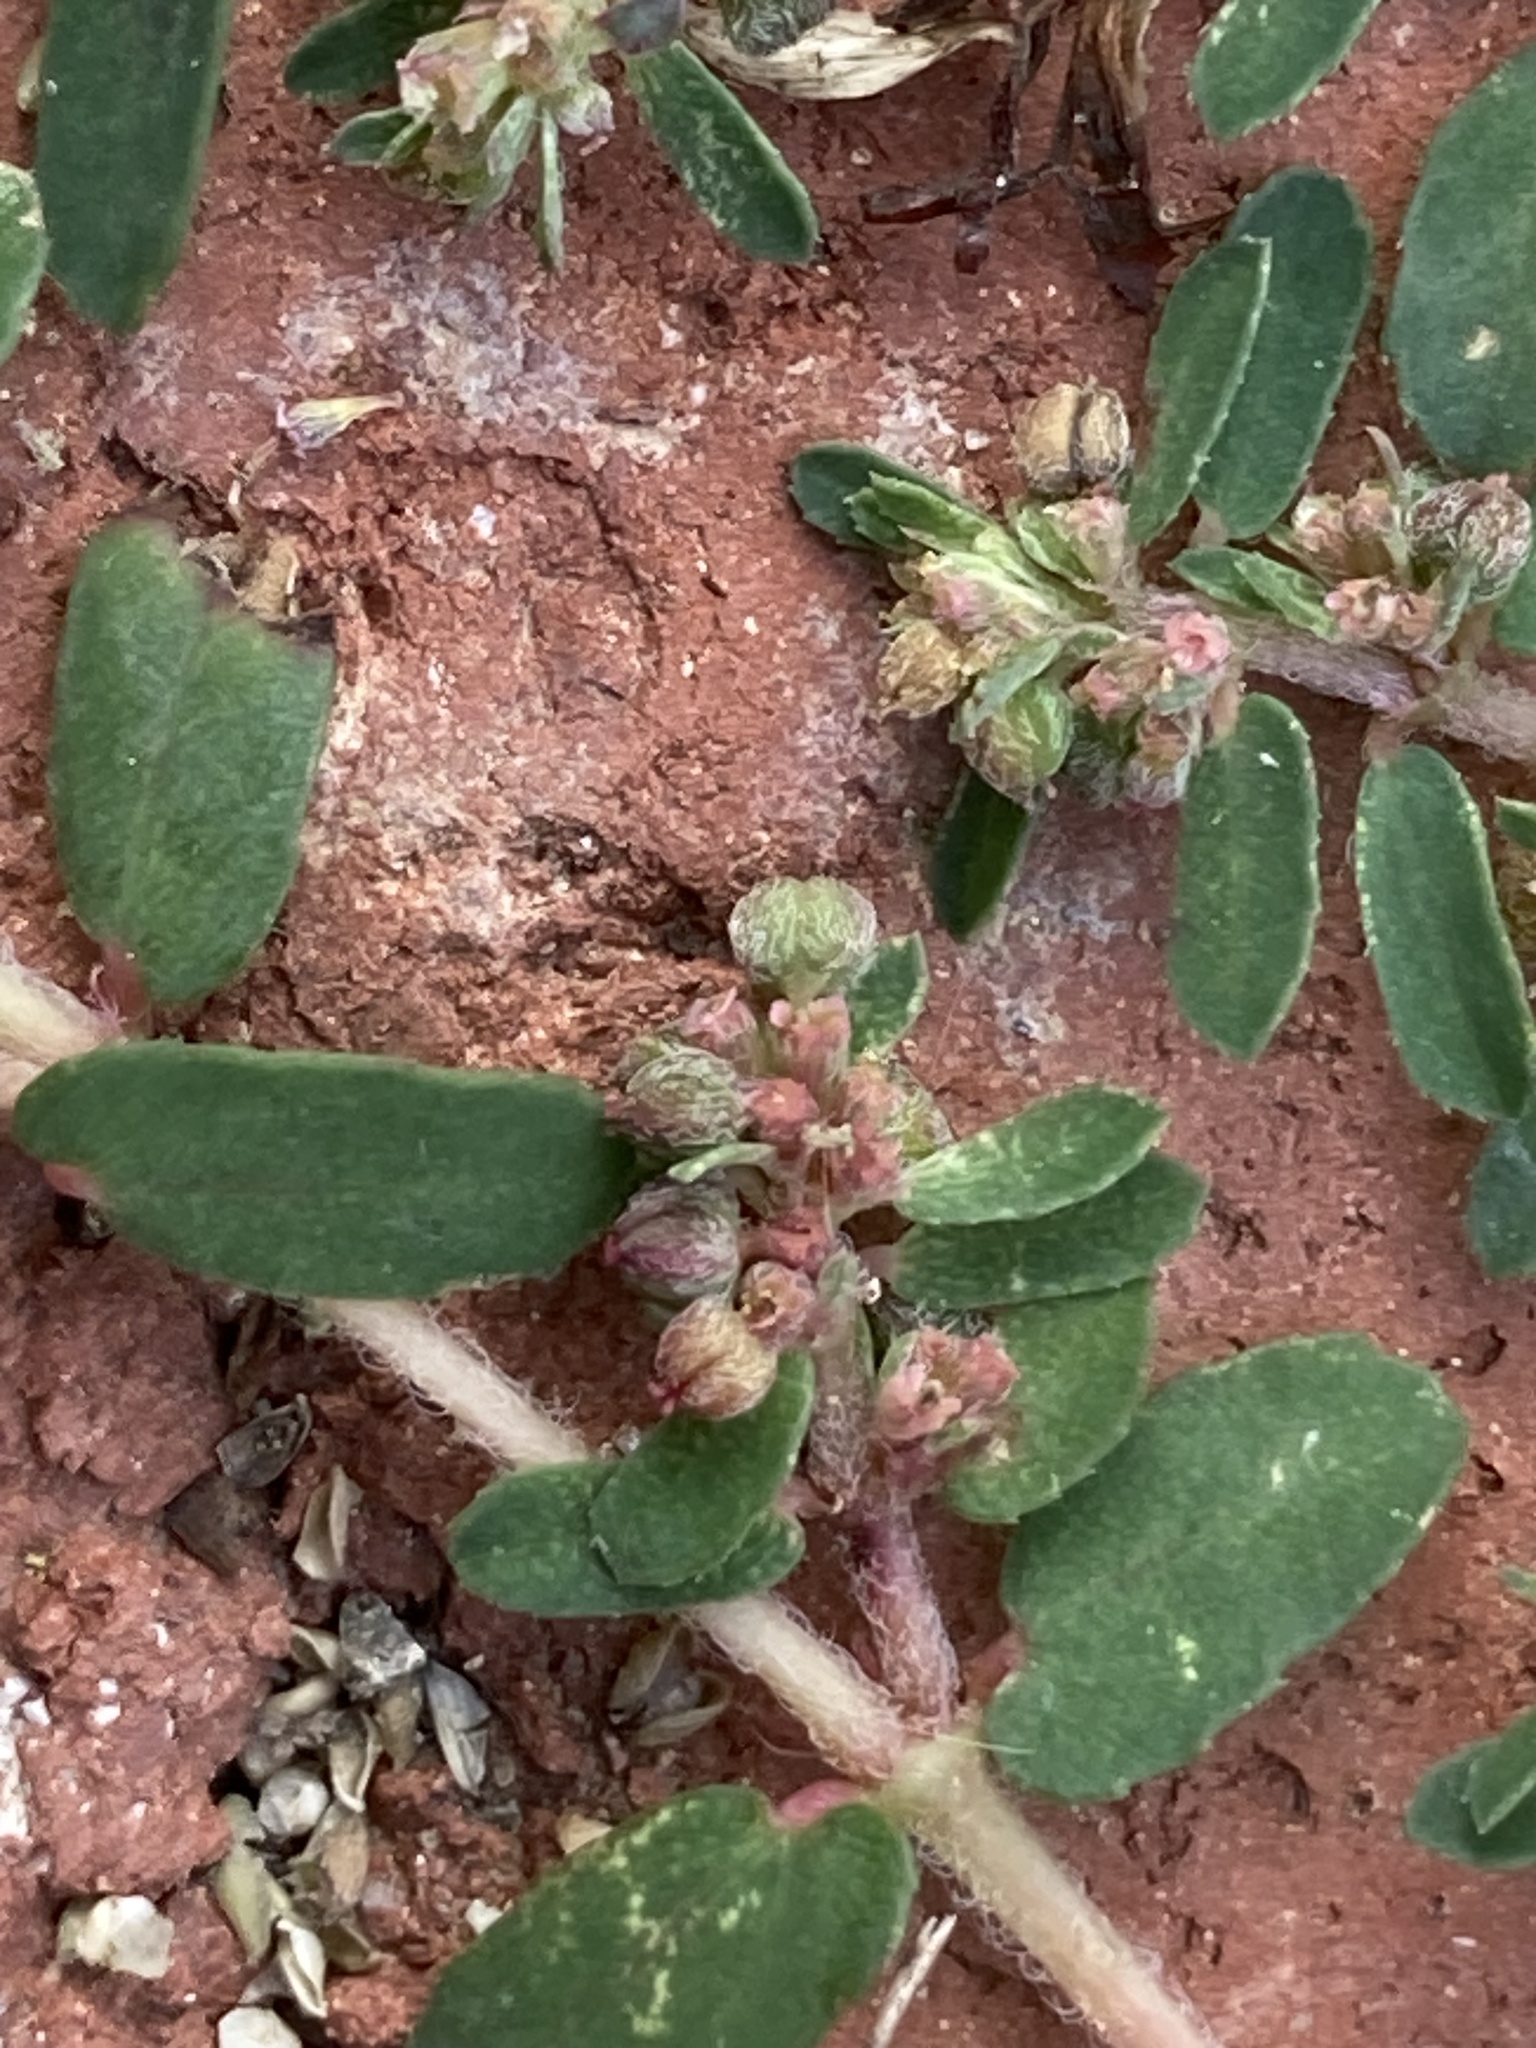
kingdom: Plantae
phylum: Tracheophyta
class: Magnoliopsida
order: Malpighiales
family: Euphorbiaceae
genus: Euphorbia
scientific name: Euphorbia maculata
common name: Spotted spurge
